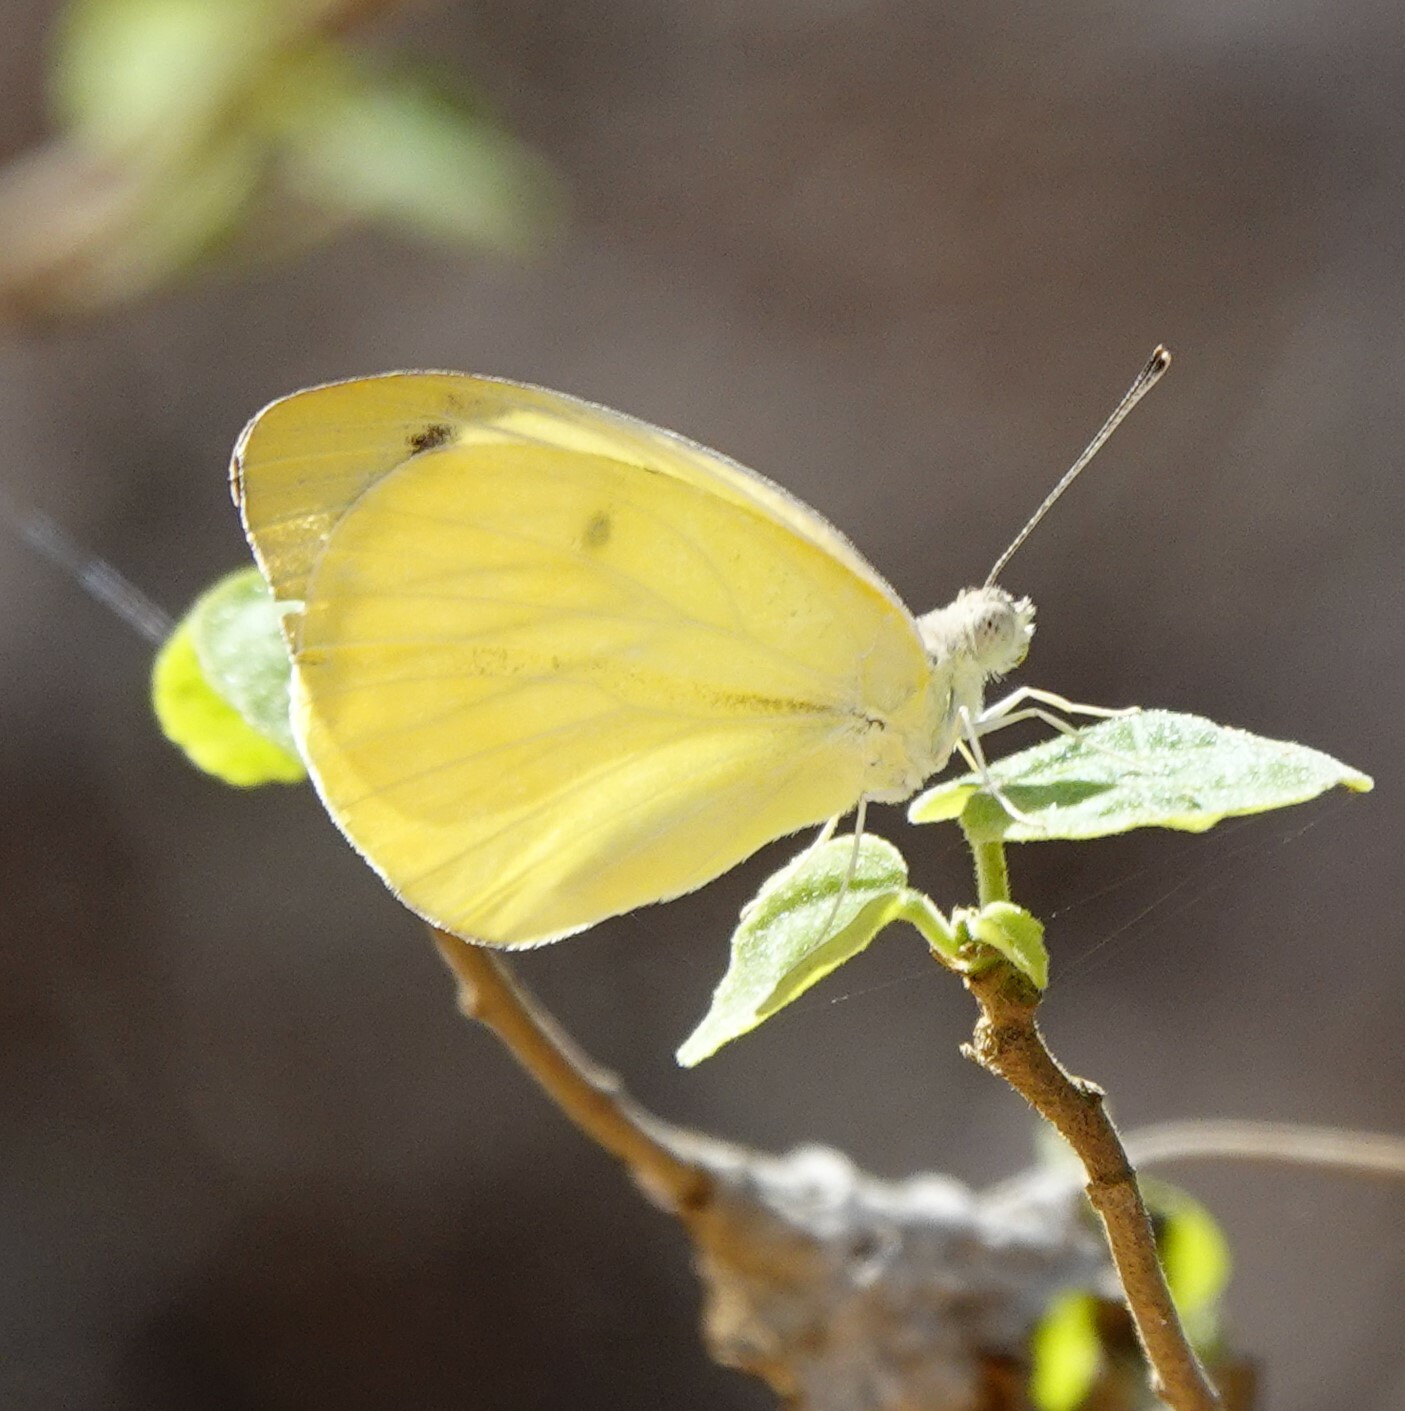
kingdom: Animalia
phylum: Arthropoda
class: Insecta
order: Lepidoptera
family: Pieridae
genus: Gideona
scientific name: Gideona lucasi
